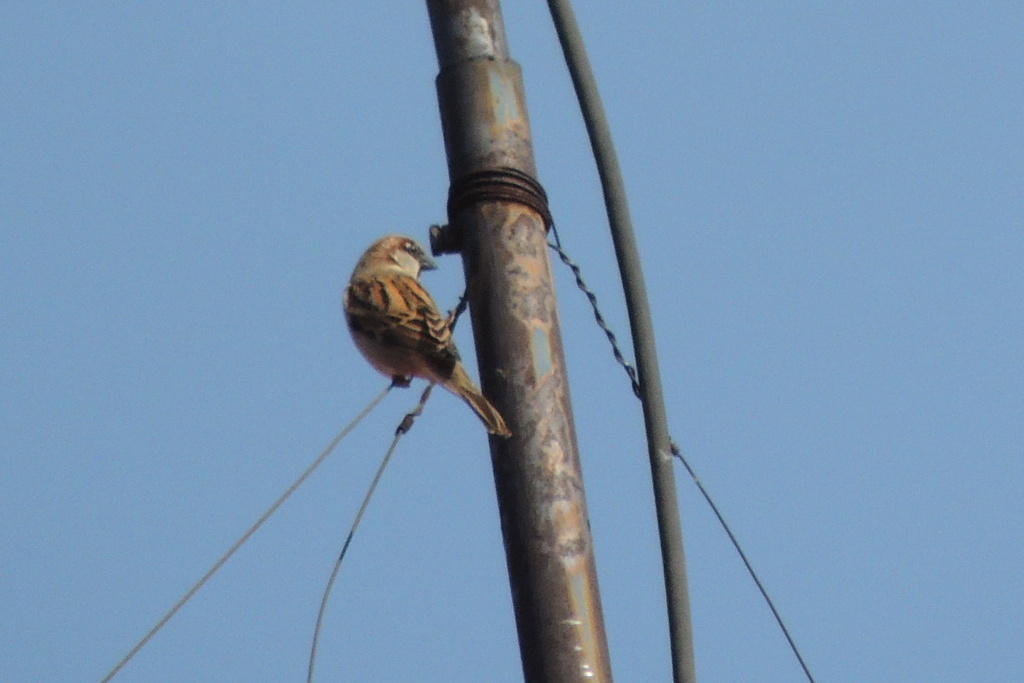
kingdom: Animalia
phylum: Chordata
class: Aves
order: Passeriformes
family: Passeridae
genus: Passer
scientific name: Passer domesticus
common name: House sparrow
